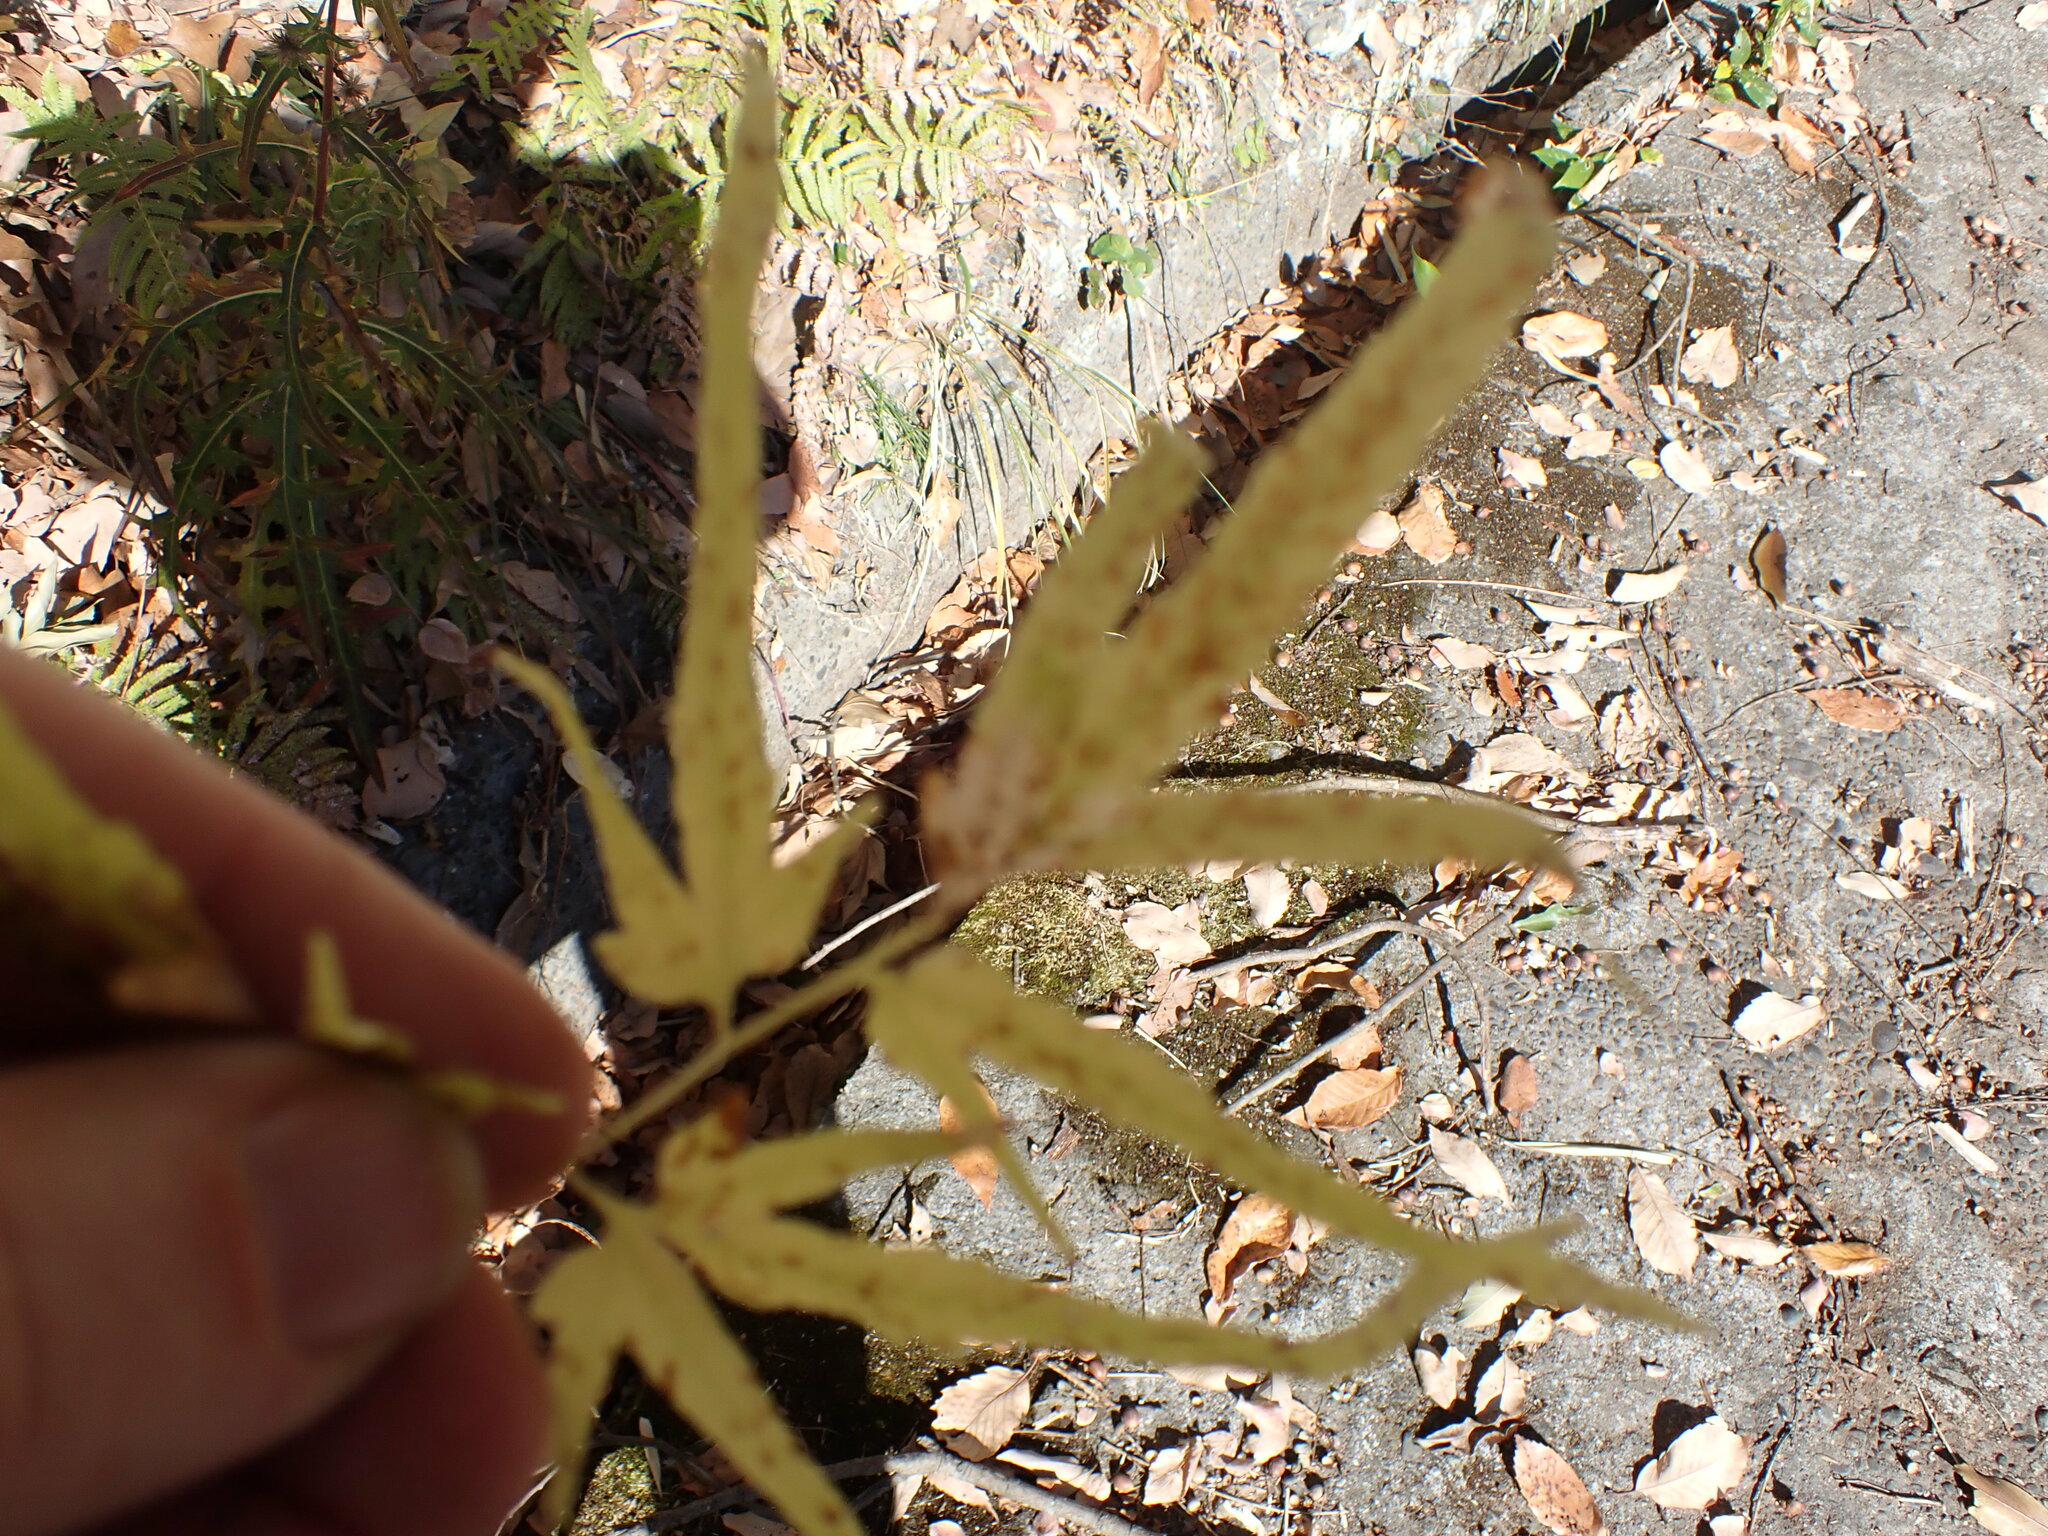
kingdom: Plantae
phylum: Tracheophyta
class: Polypodiopsida
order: Schizaeales
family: Lygodiaceae
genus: Lygodium
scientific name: Lygodium japonicum
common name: Japanese climbing fern
